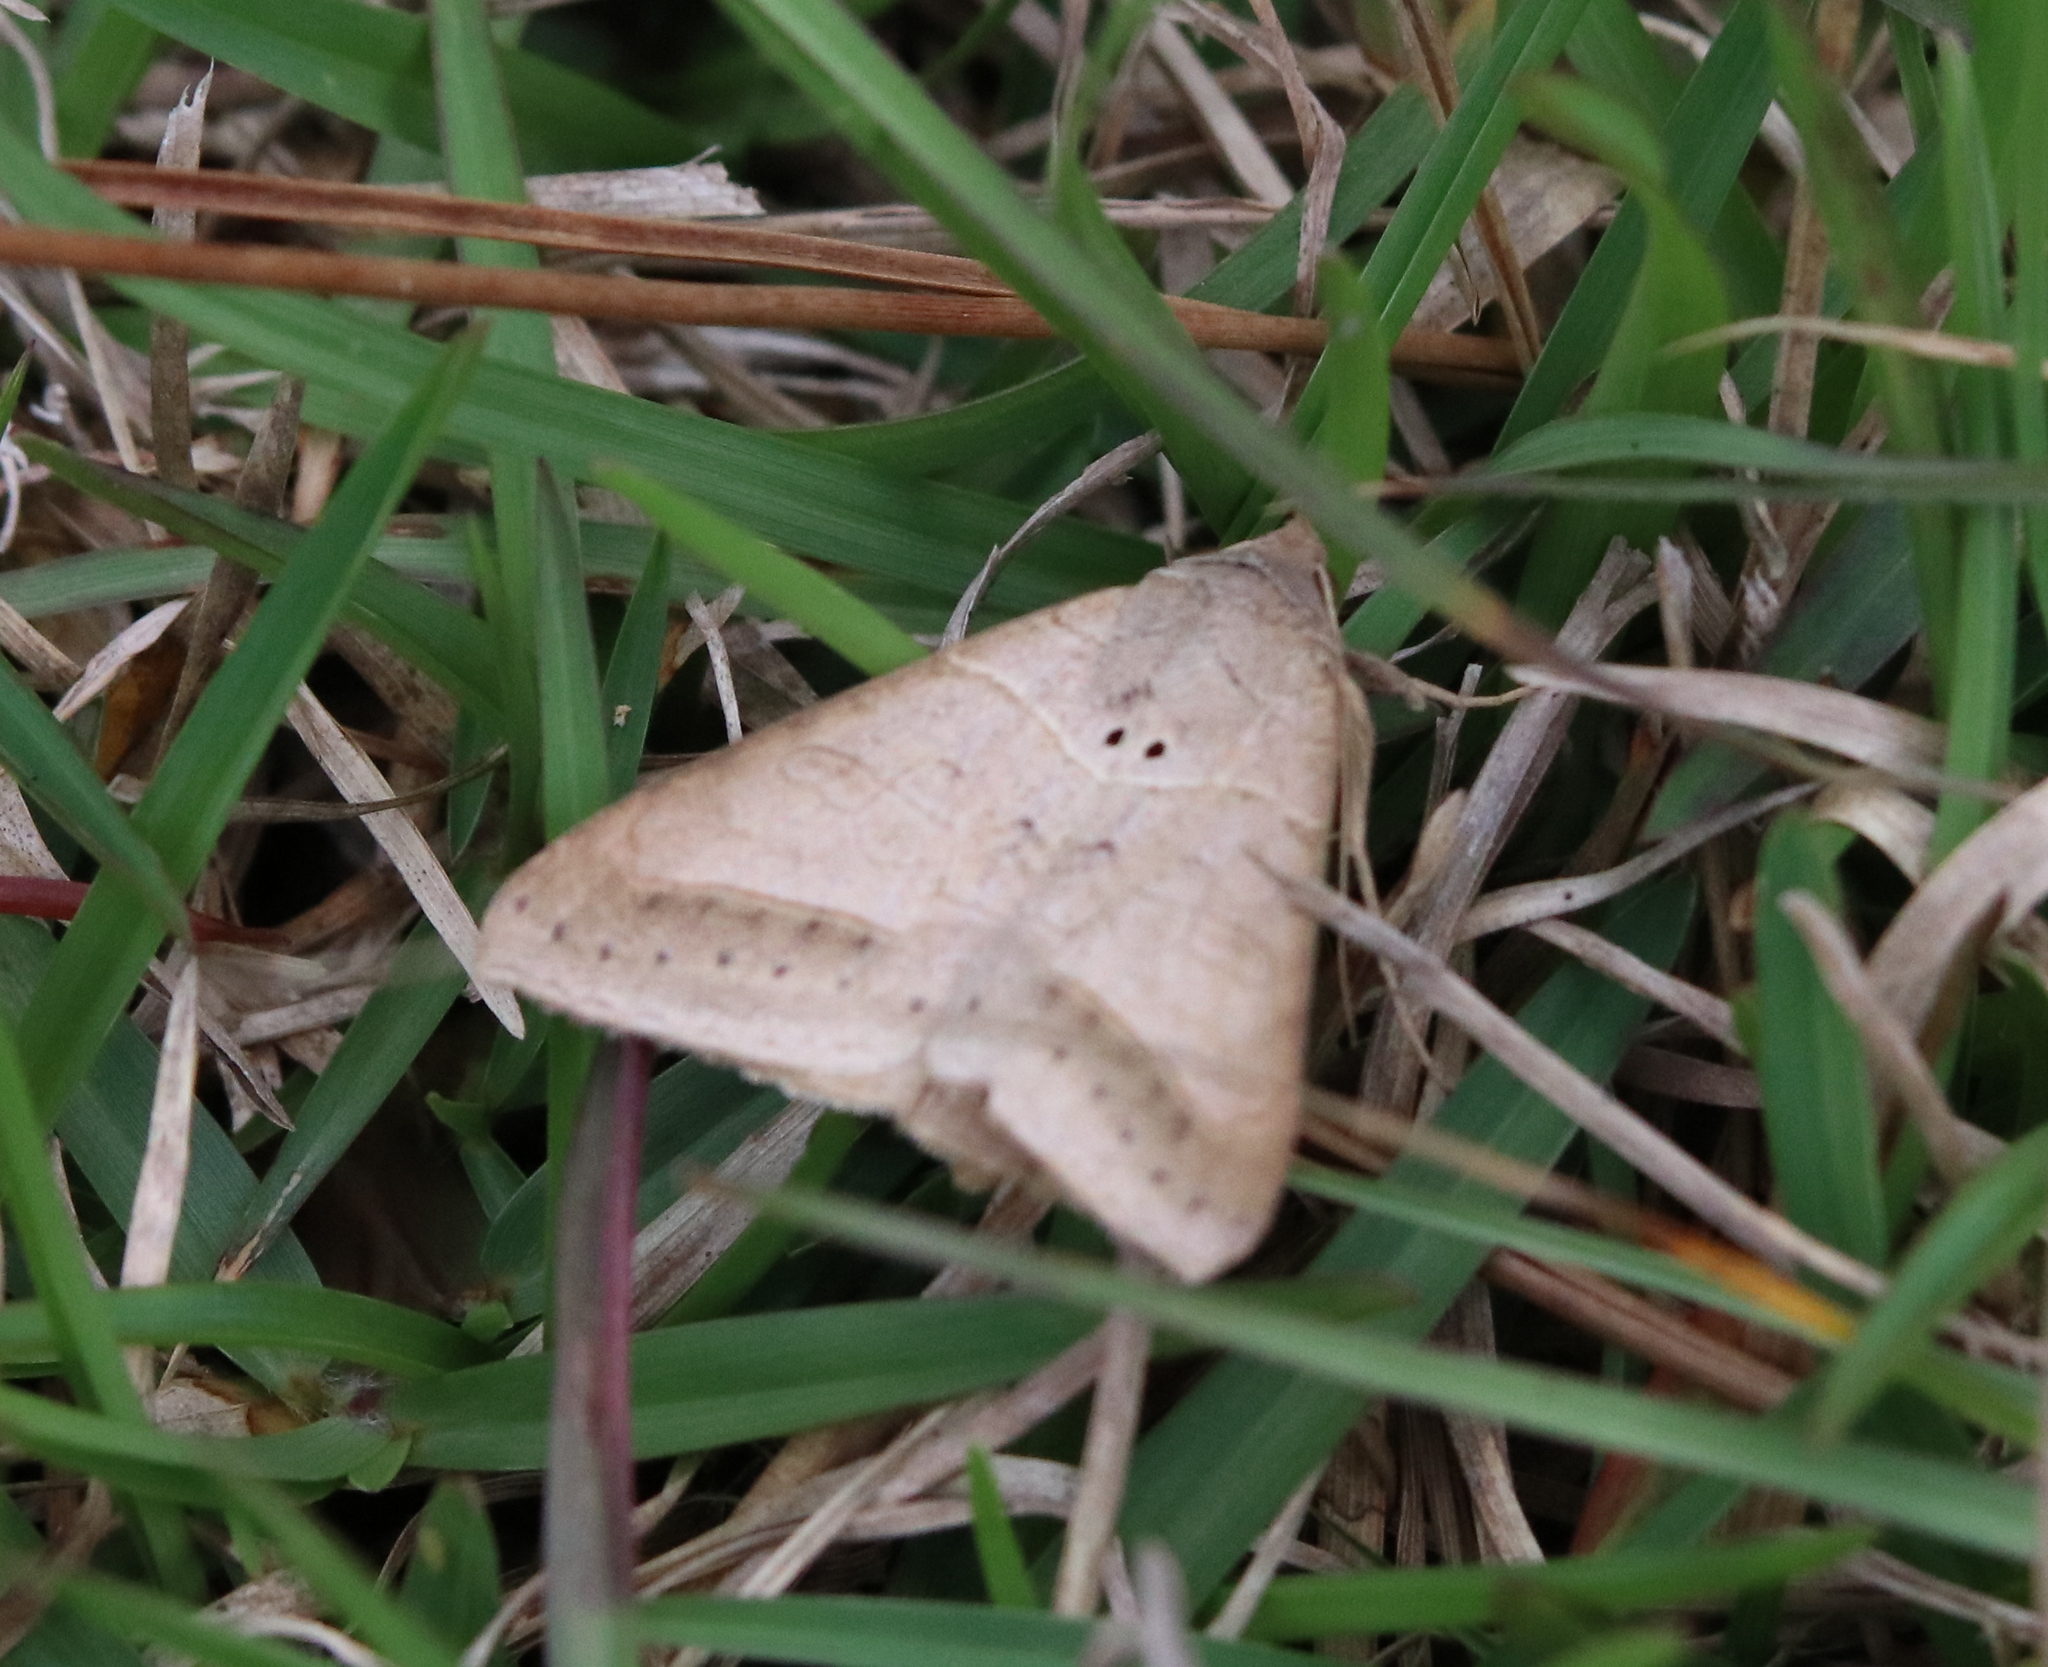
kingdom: Animalia
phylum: Arthropoda
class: Insecta
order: Lepidoptera
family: Erebidae
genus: Mocis
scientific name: Mocis marcida
